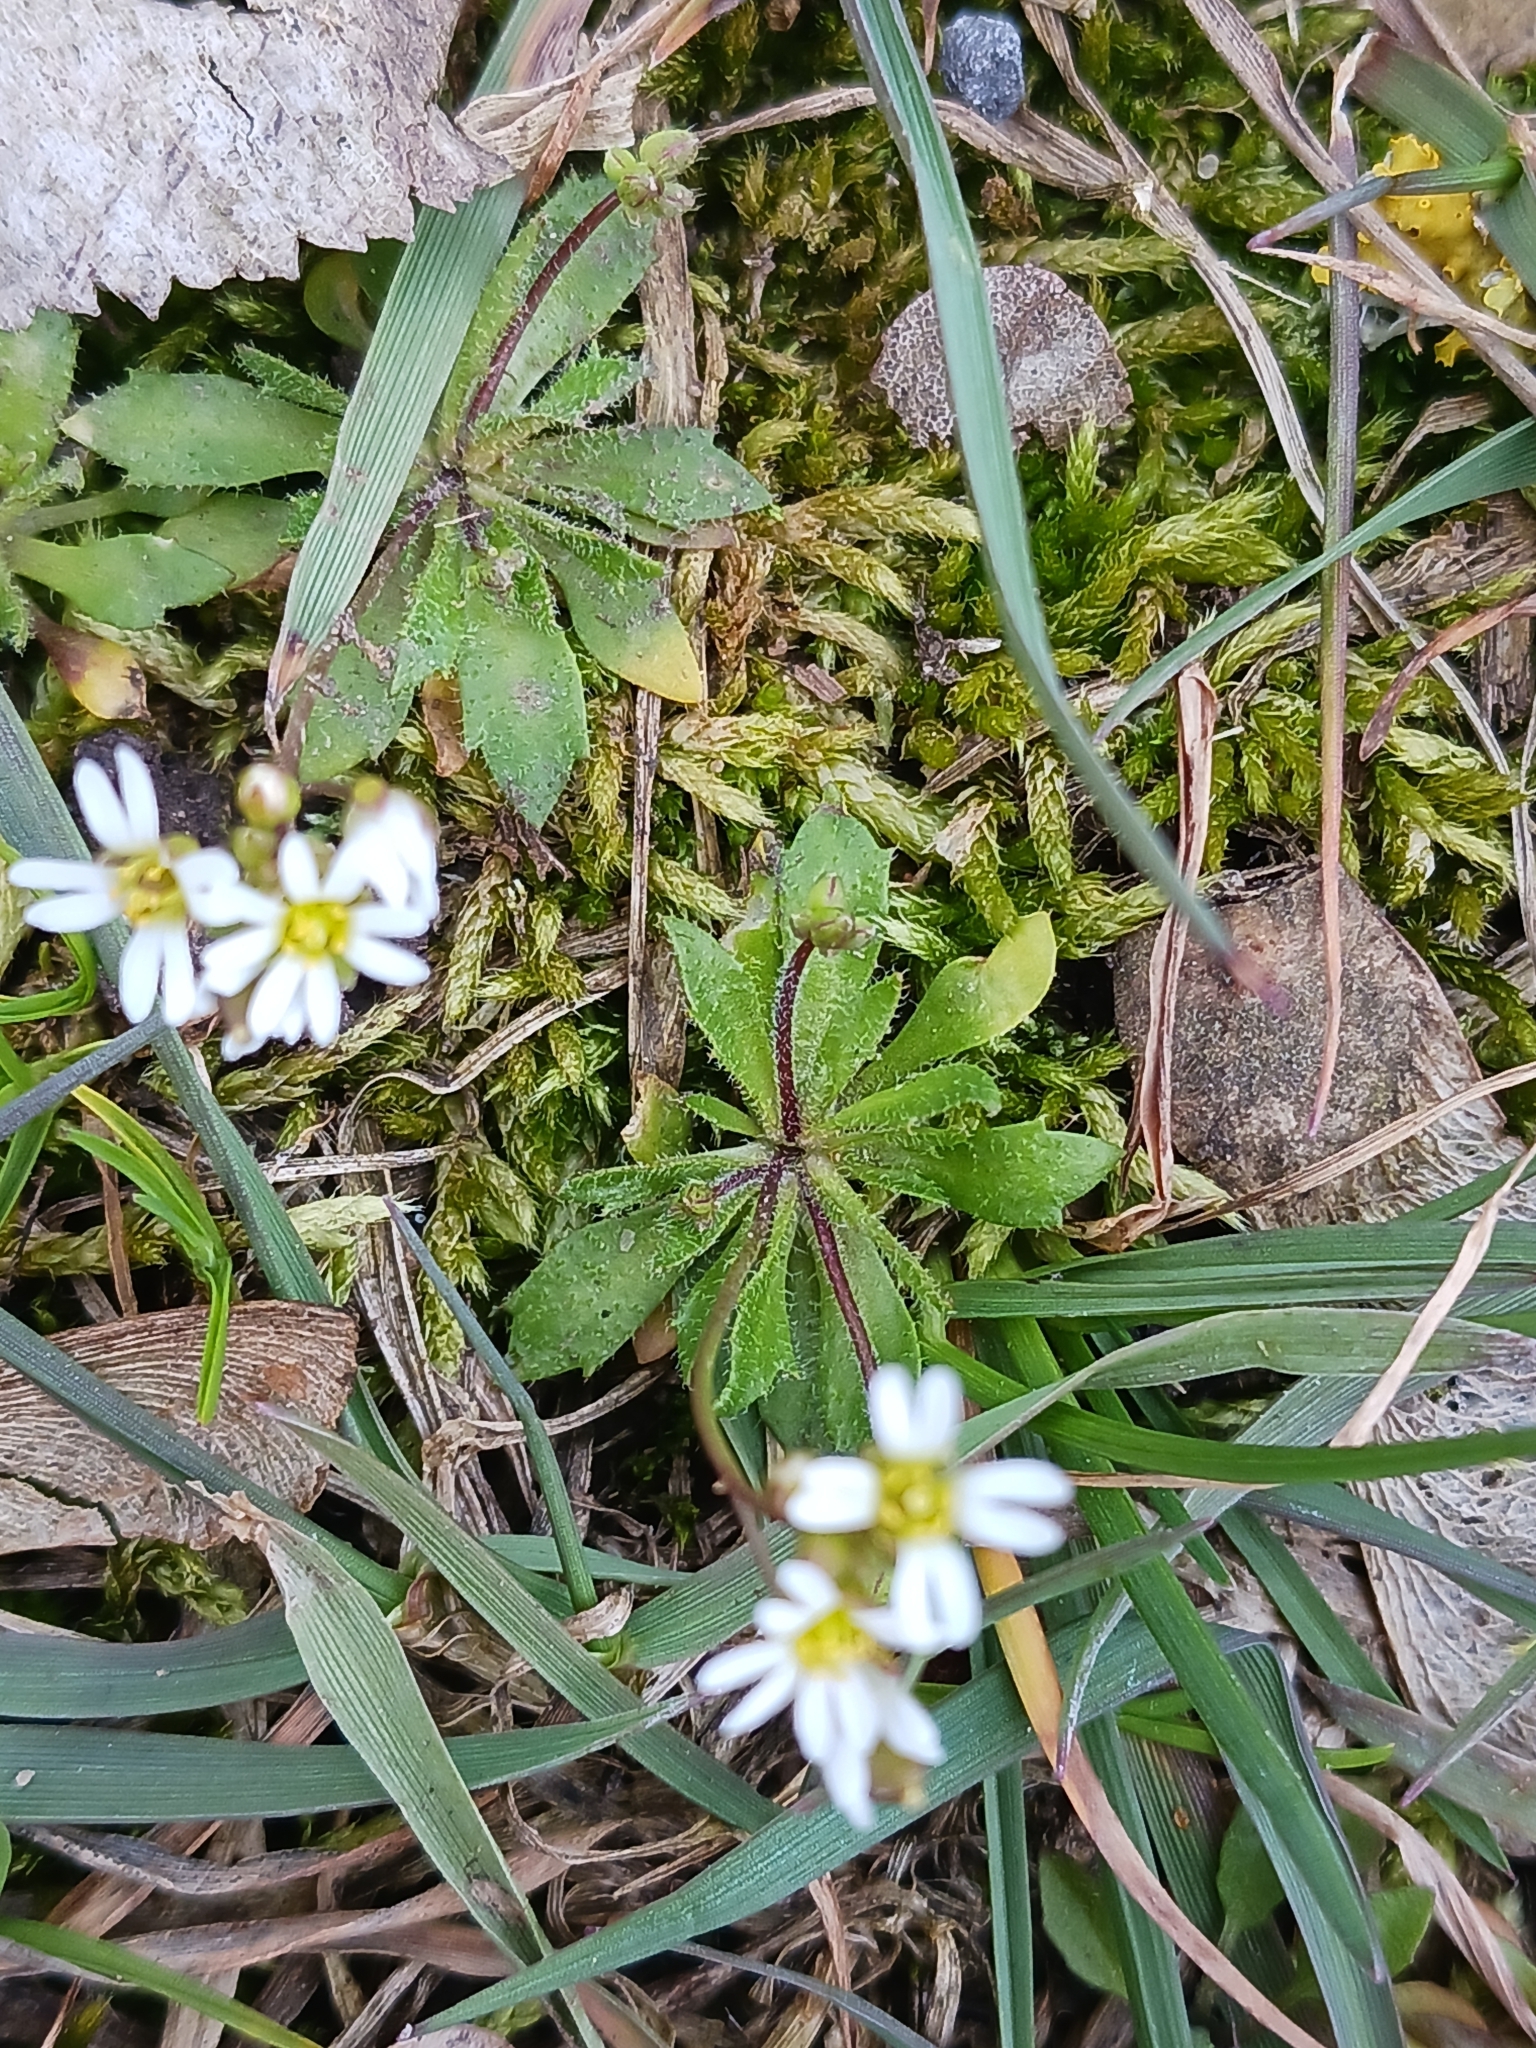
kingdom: Plantae
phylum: Tracheophyta
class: Magnoliopsida
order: Brassicales
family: Brassicaceae
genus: Draba
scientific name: Draba verna
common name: Spring draba
